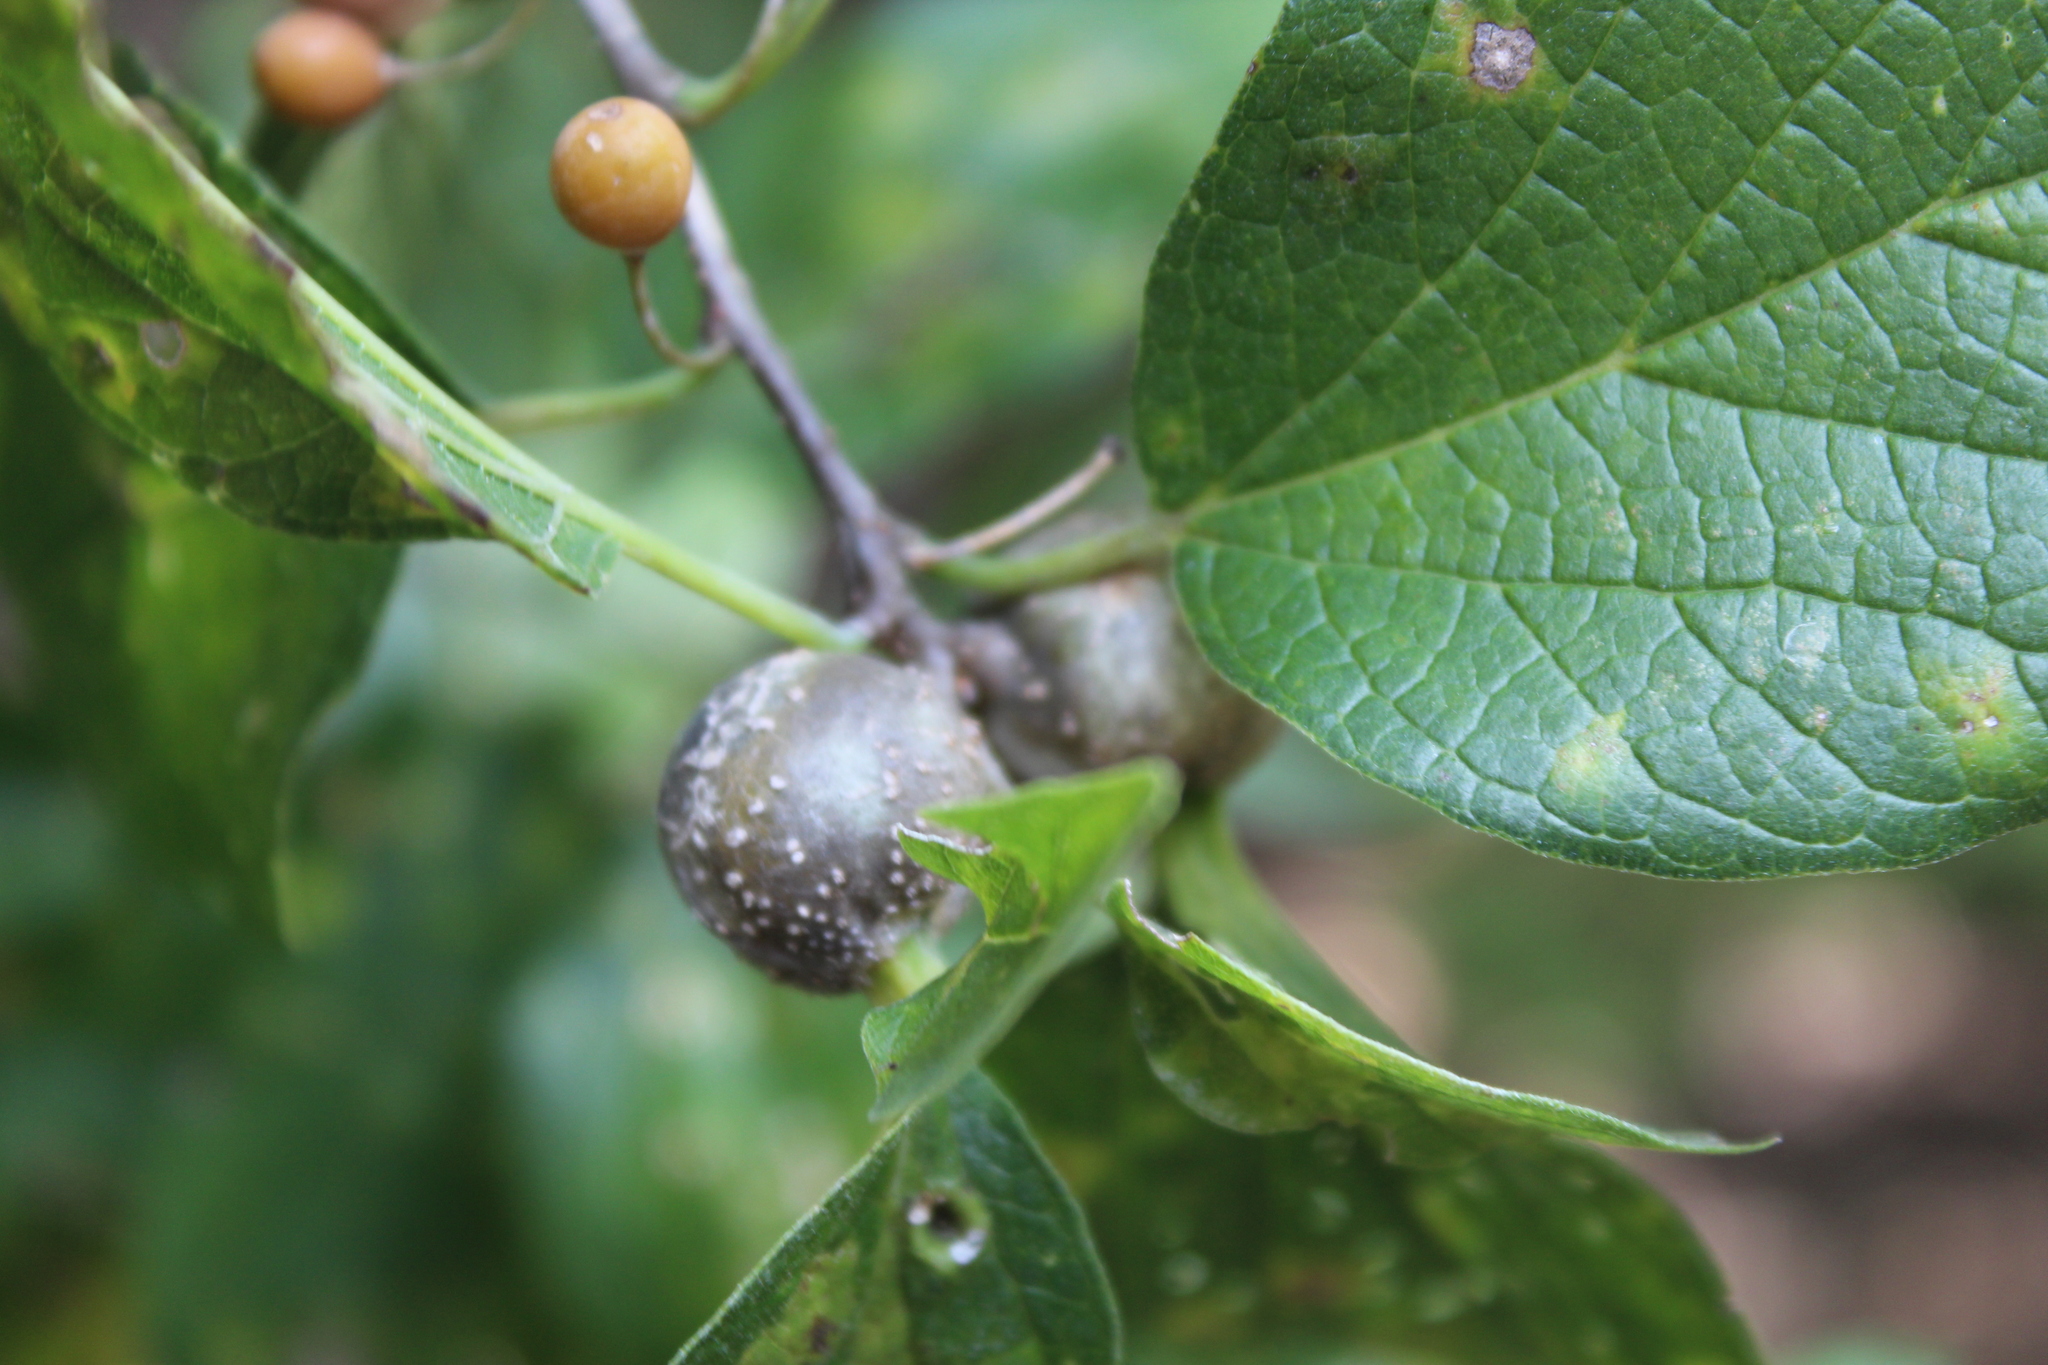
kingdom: Animalia
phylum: Arthropoda
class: Insecta
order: Hemiptera
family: Aphalaridae
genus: Pachypsylla
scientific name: Pachypsylla venusta
